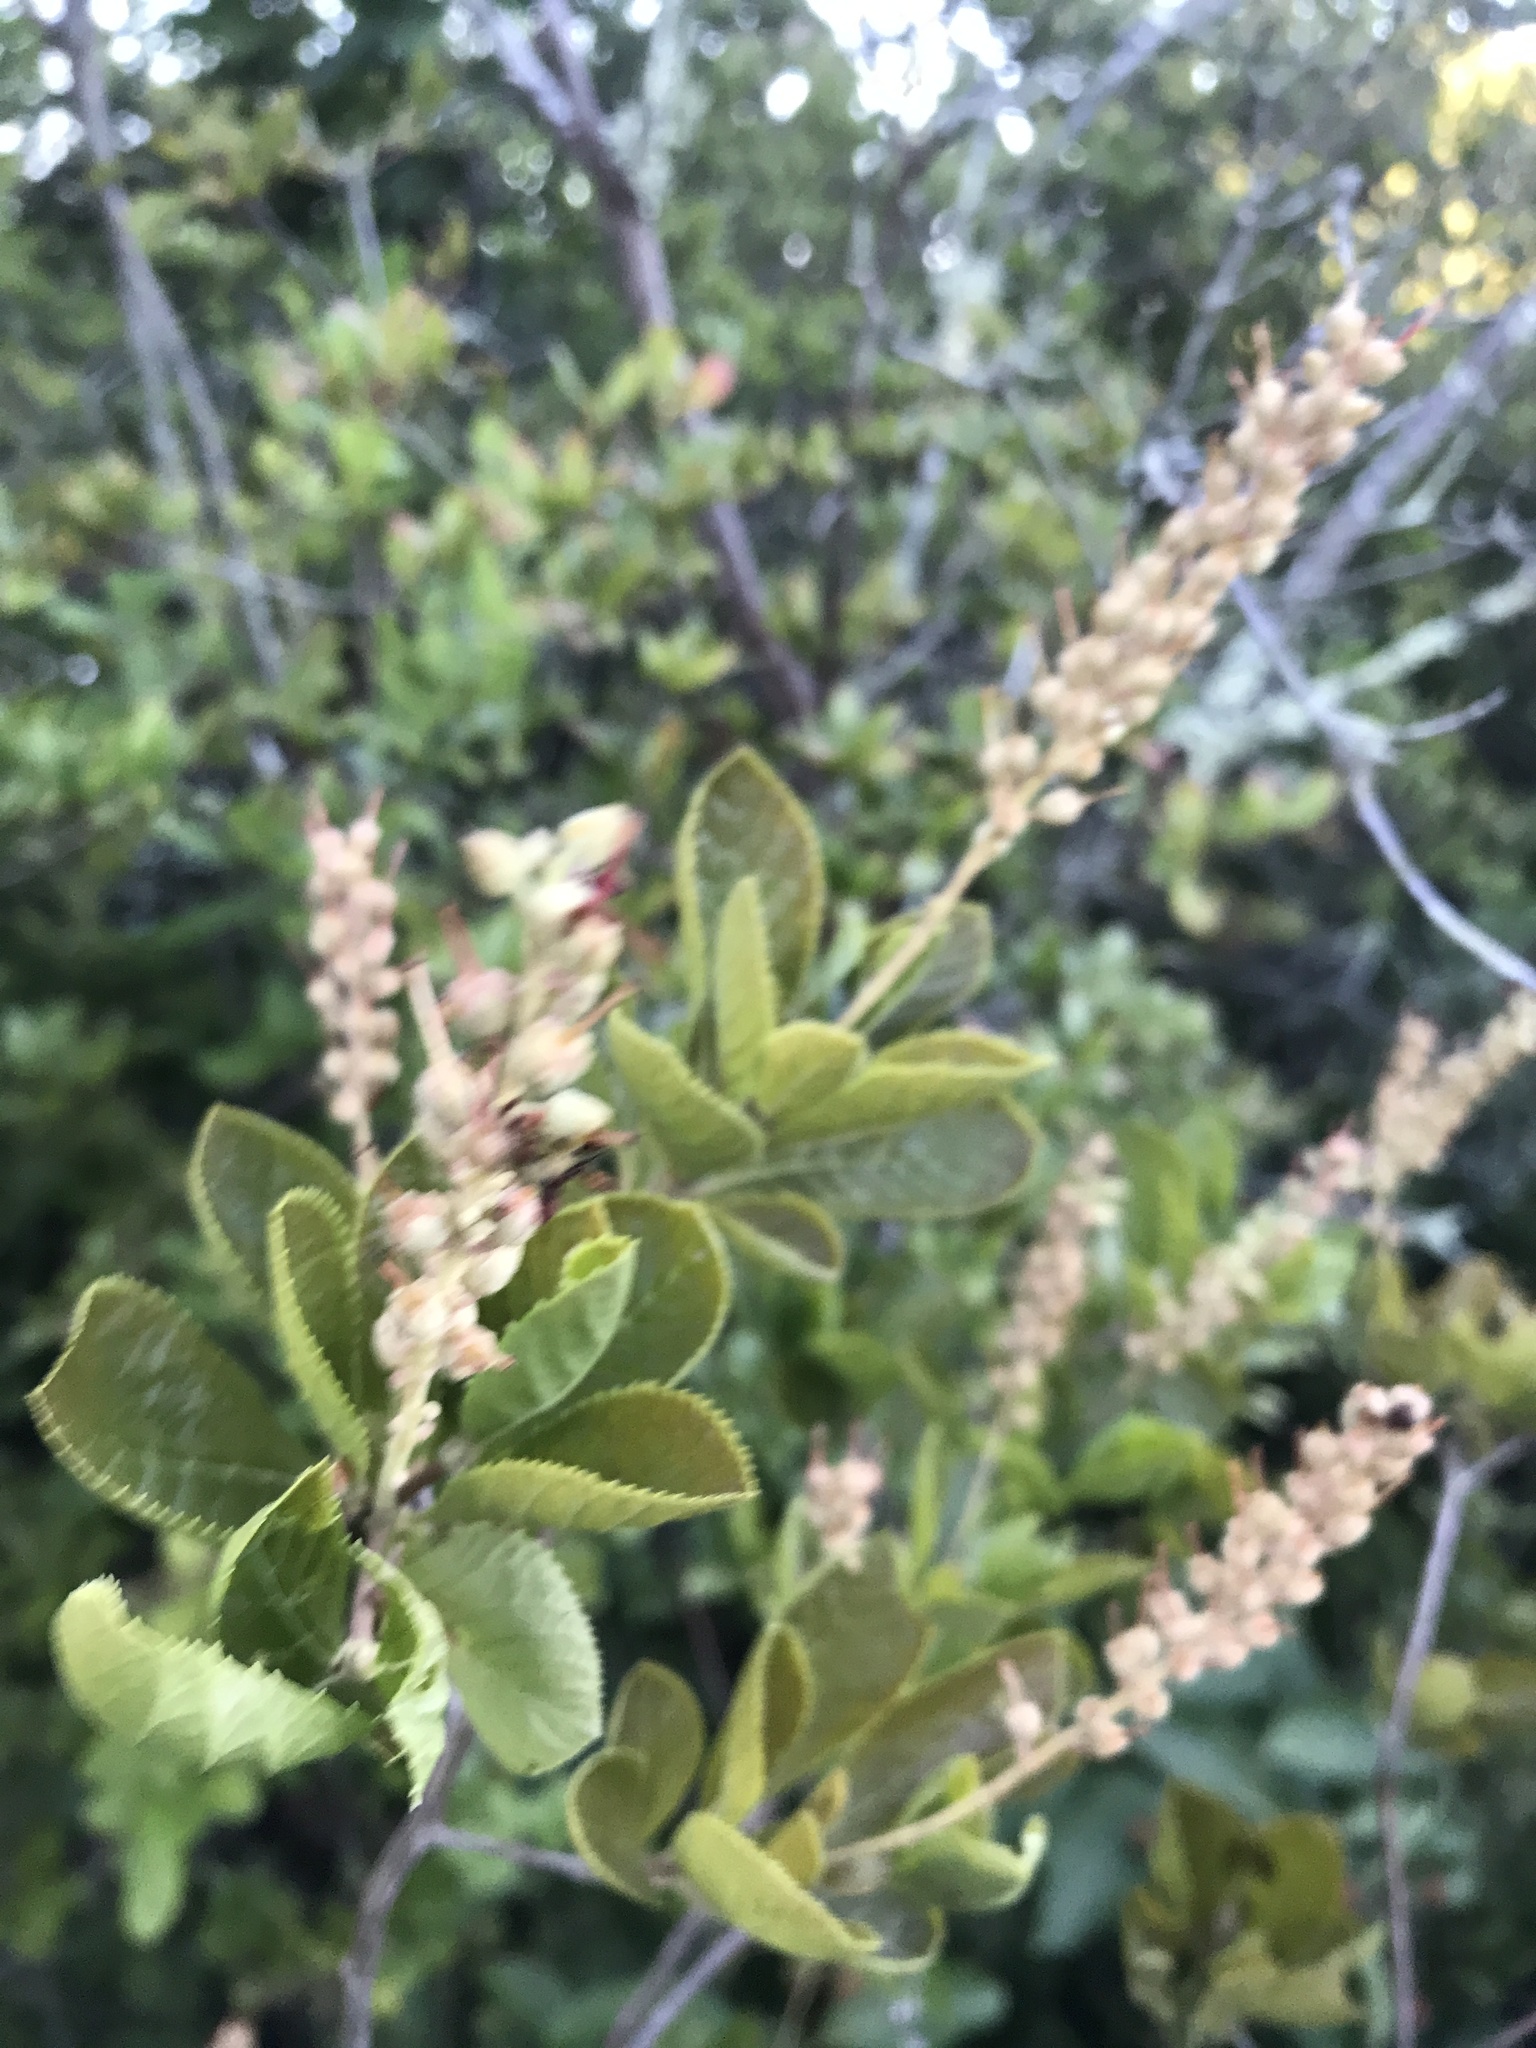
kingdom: Plantae
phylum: Tracheophyta
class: Magnoliopsida
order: Ericales
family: Clethraceae
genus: Clethra
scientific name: Clethra alnifolia
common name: Sweet pepperbush
